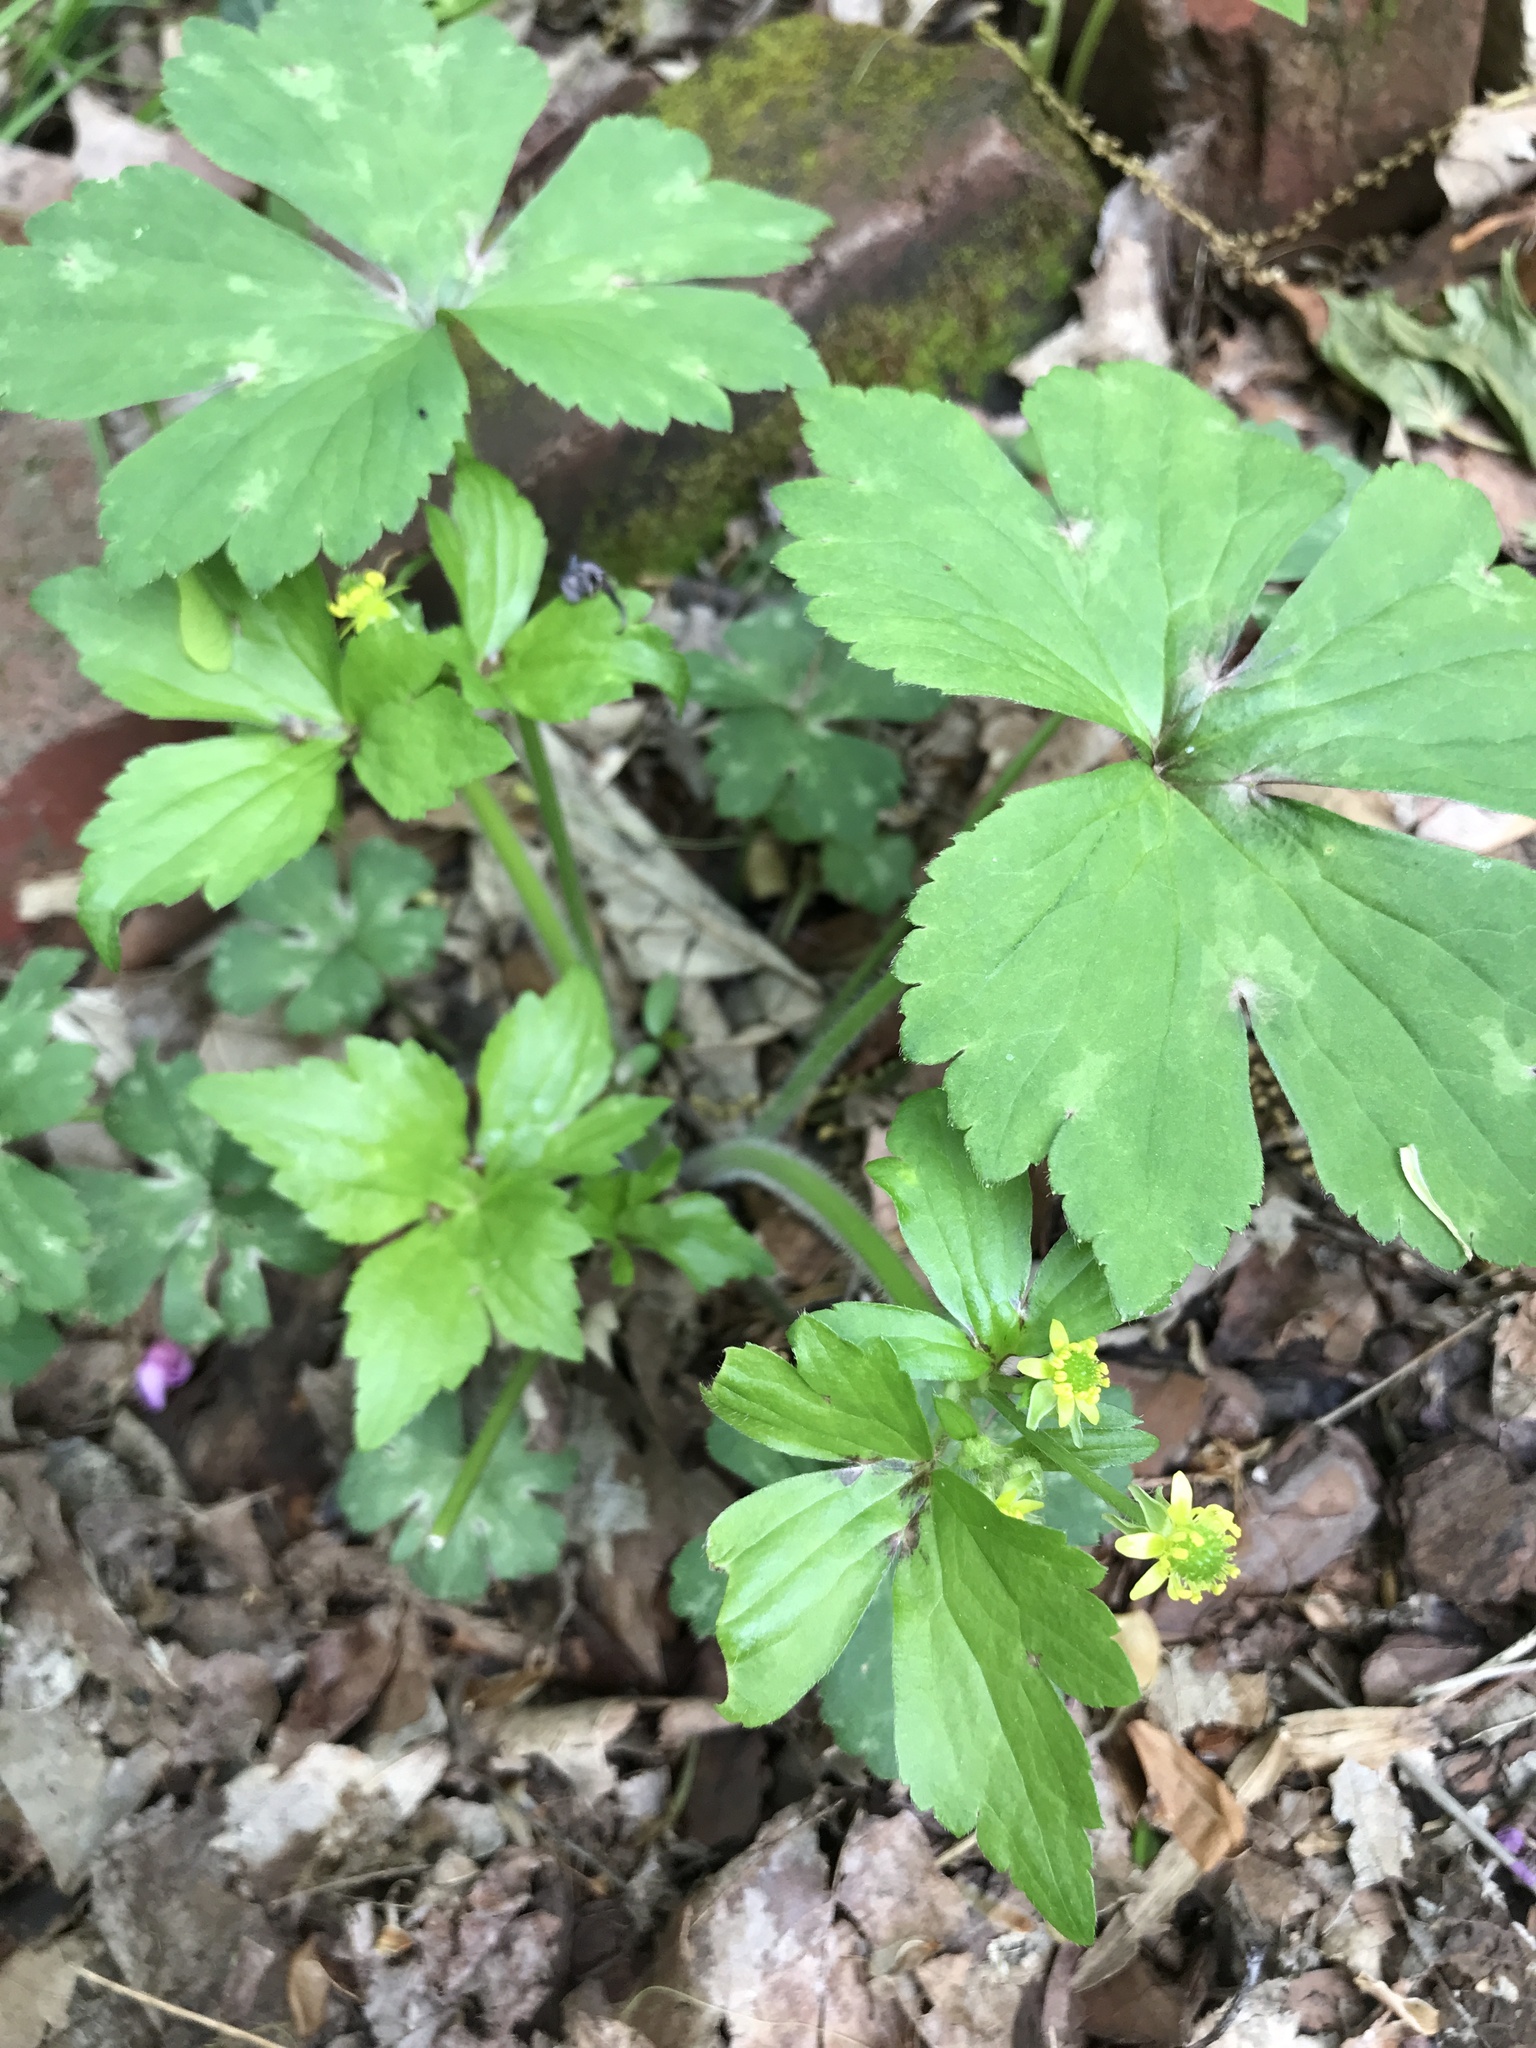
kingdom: Plantae
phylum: Tracheophyta
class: Magnoliopsida
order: Ranunculales
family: Ranunculaceae
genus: Ranunculus
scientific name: Ranunculus recurvatus
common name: Blisterwort
